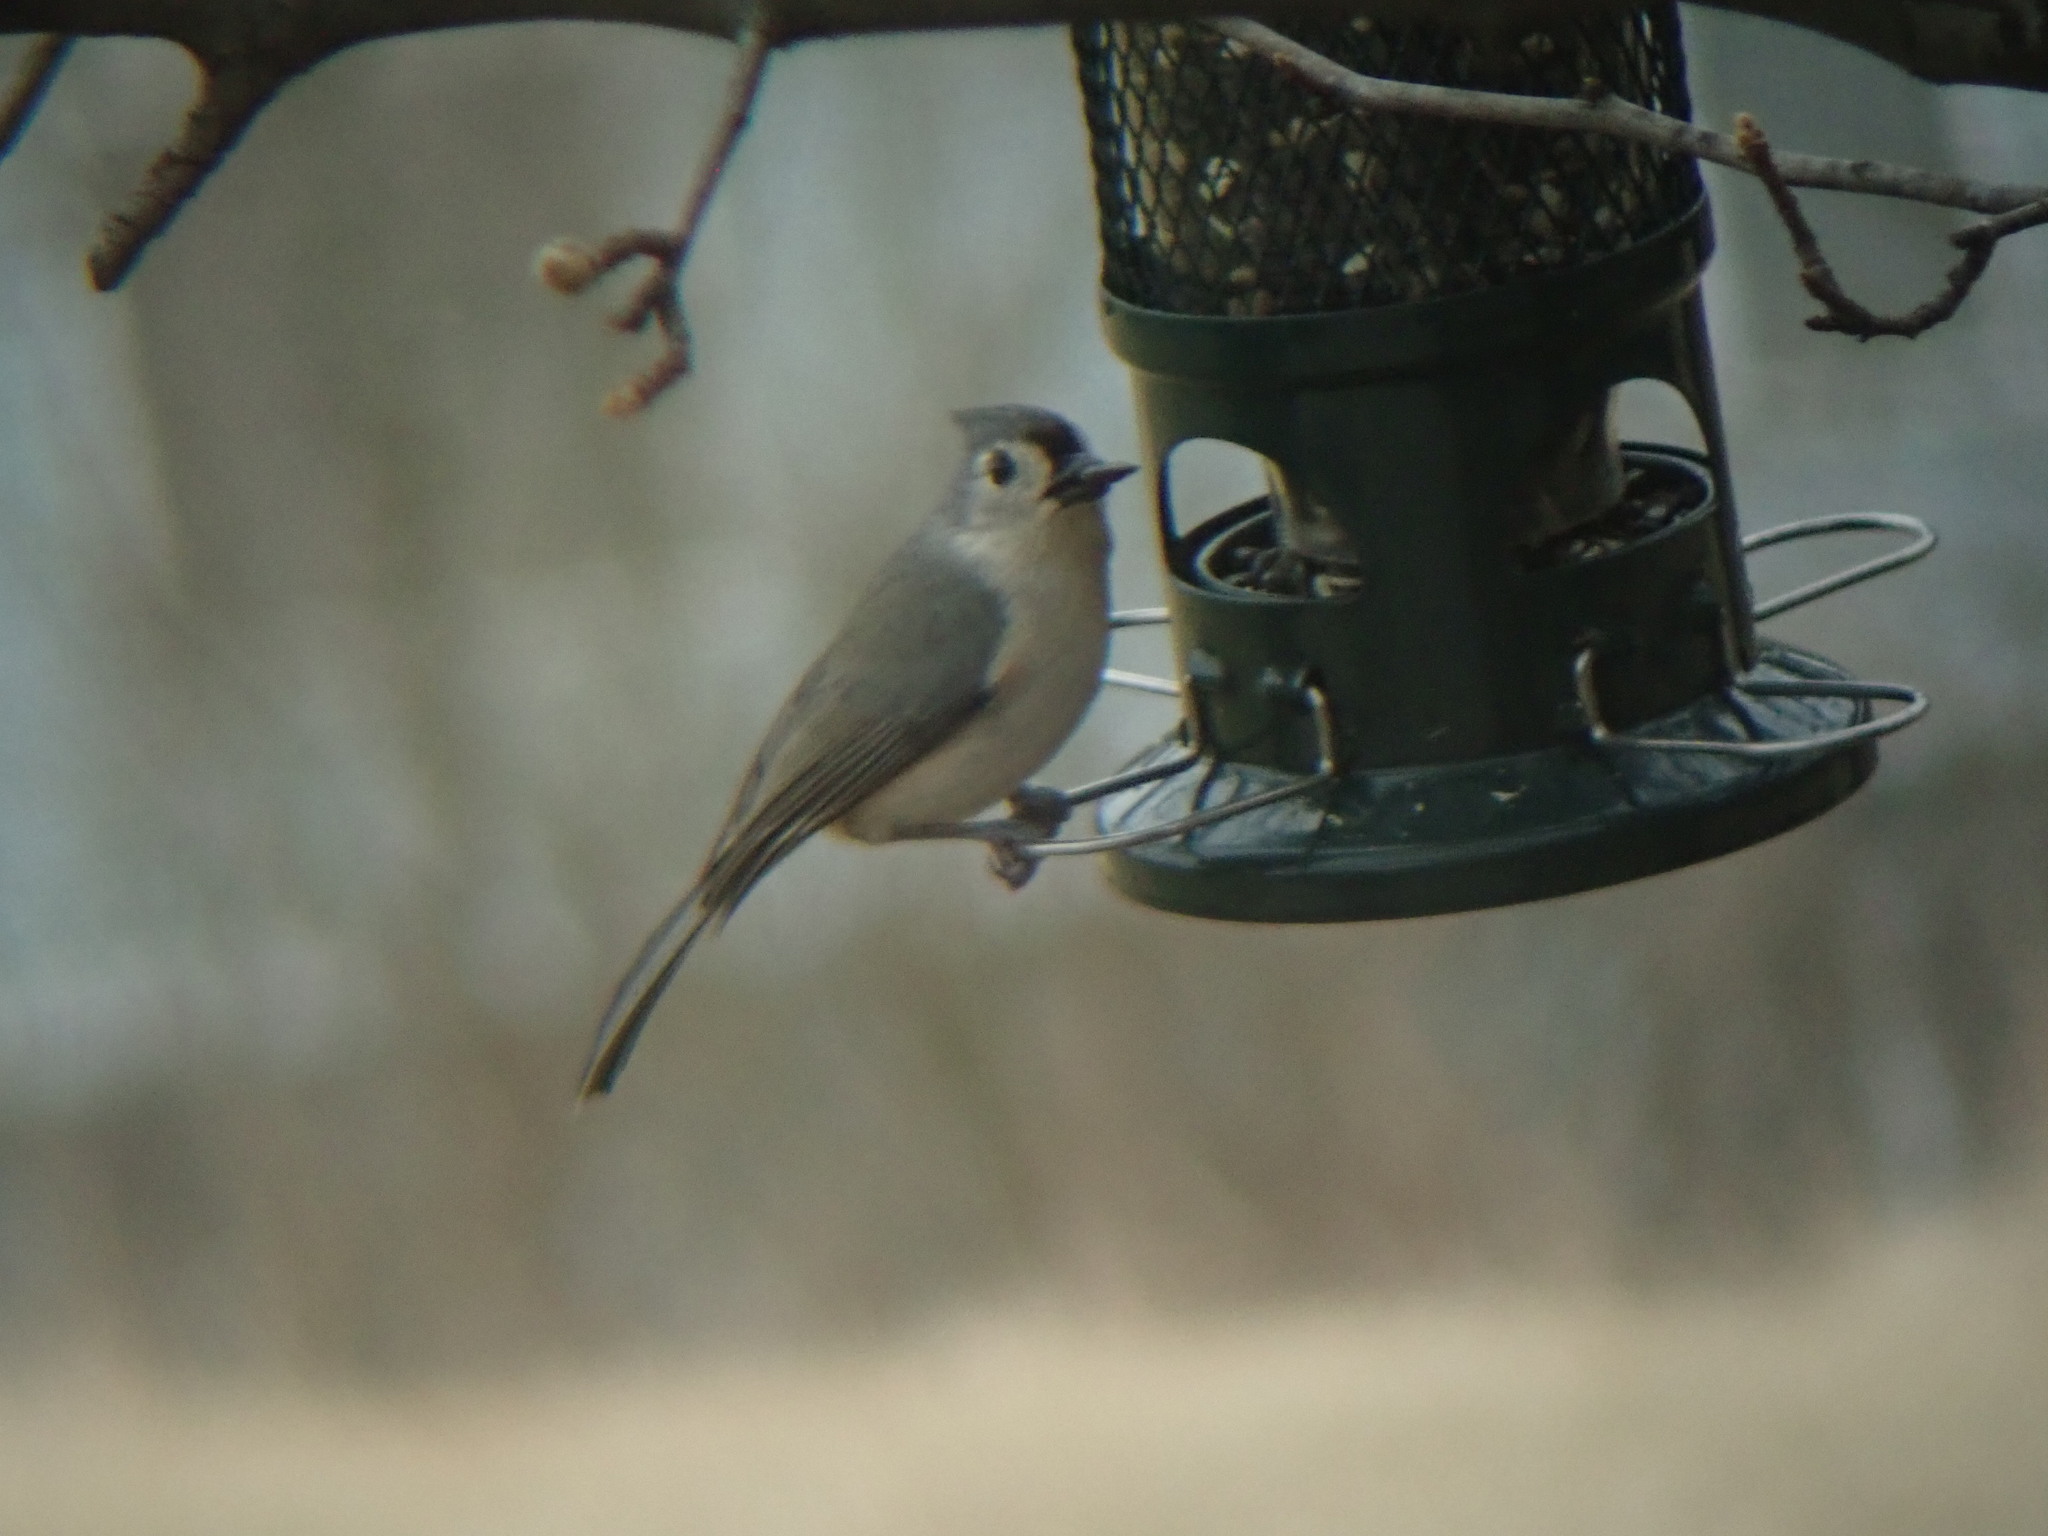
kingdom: Animalia
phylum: Chordata
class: Aves
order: Passeriformes
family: Paridae
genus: Baeolophus
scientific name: Baeolophus bicolor
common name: Tufted titmouse
